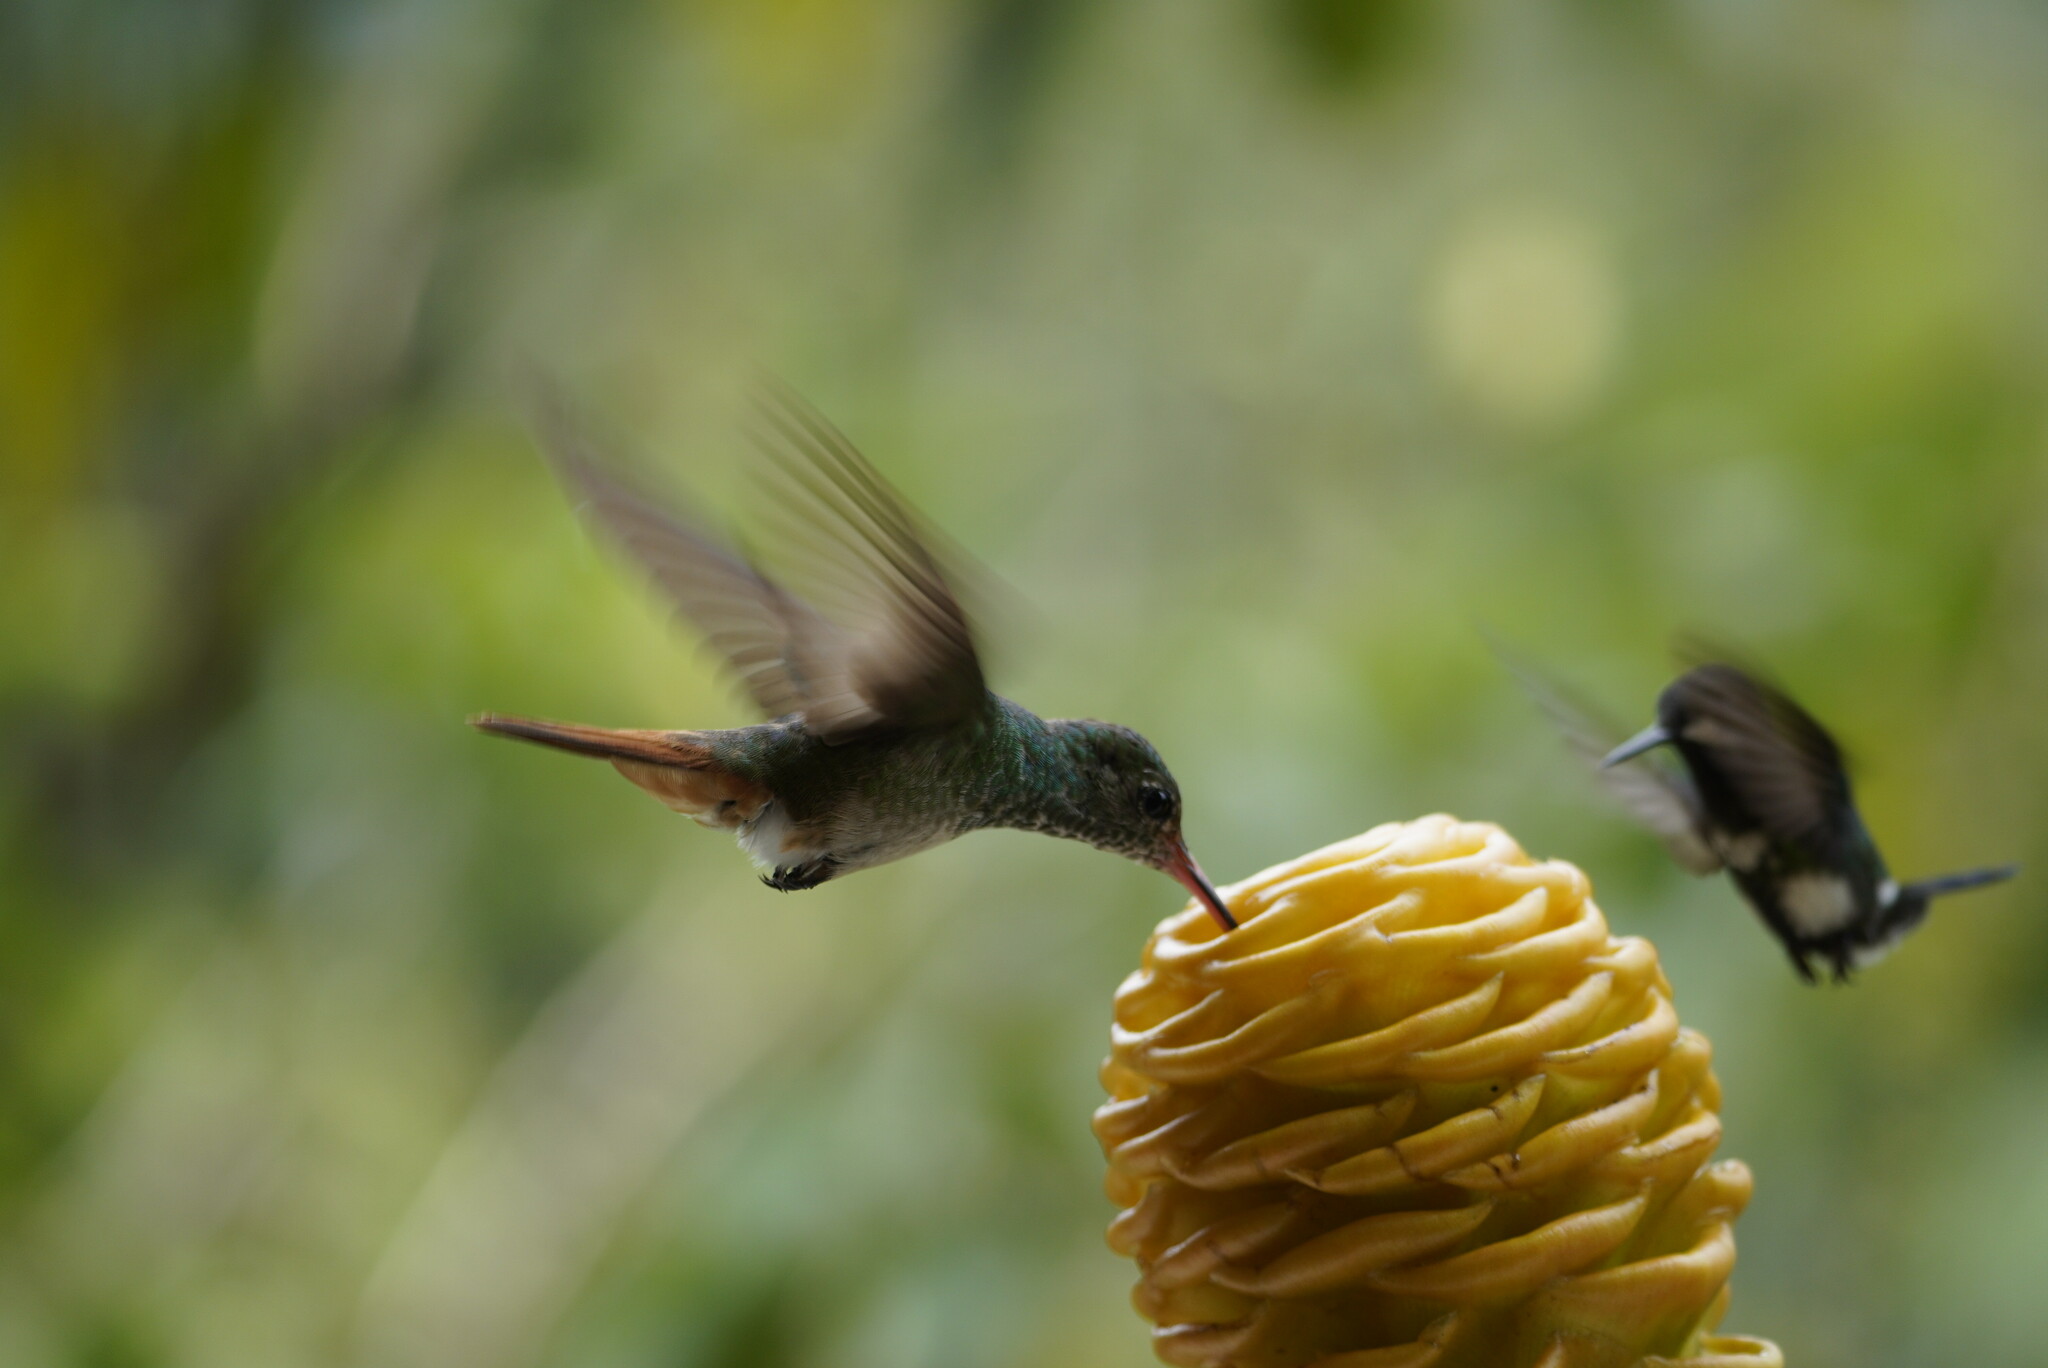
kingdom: Animalia
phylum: Chordata
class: Aves
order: Apodiformes
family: Trochilidae
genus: Amazilia
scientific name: Amazilia tzacatl
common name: Rufous-tailed hummingbird
